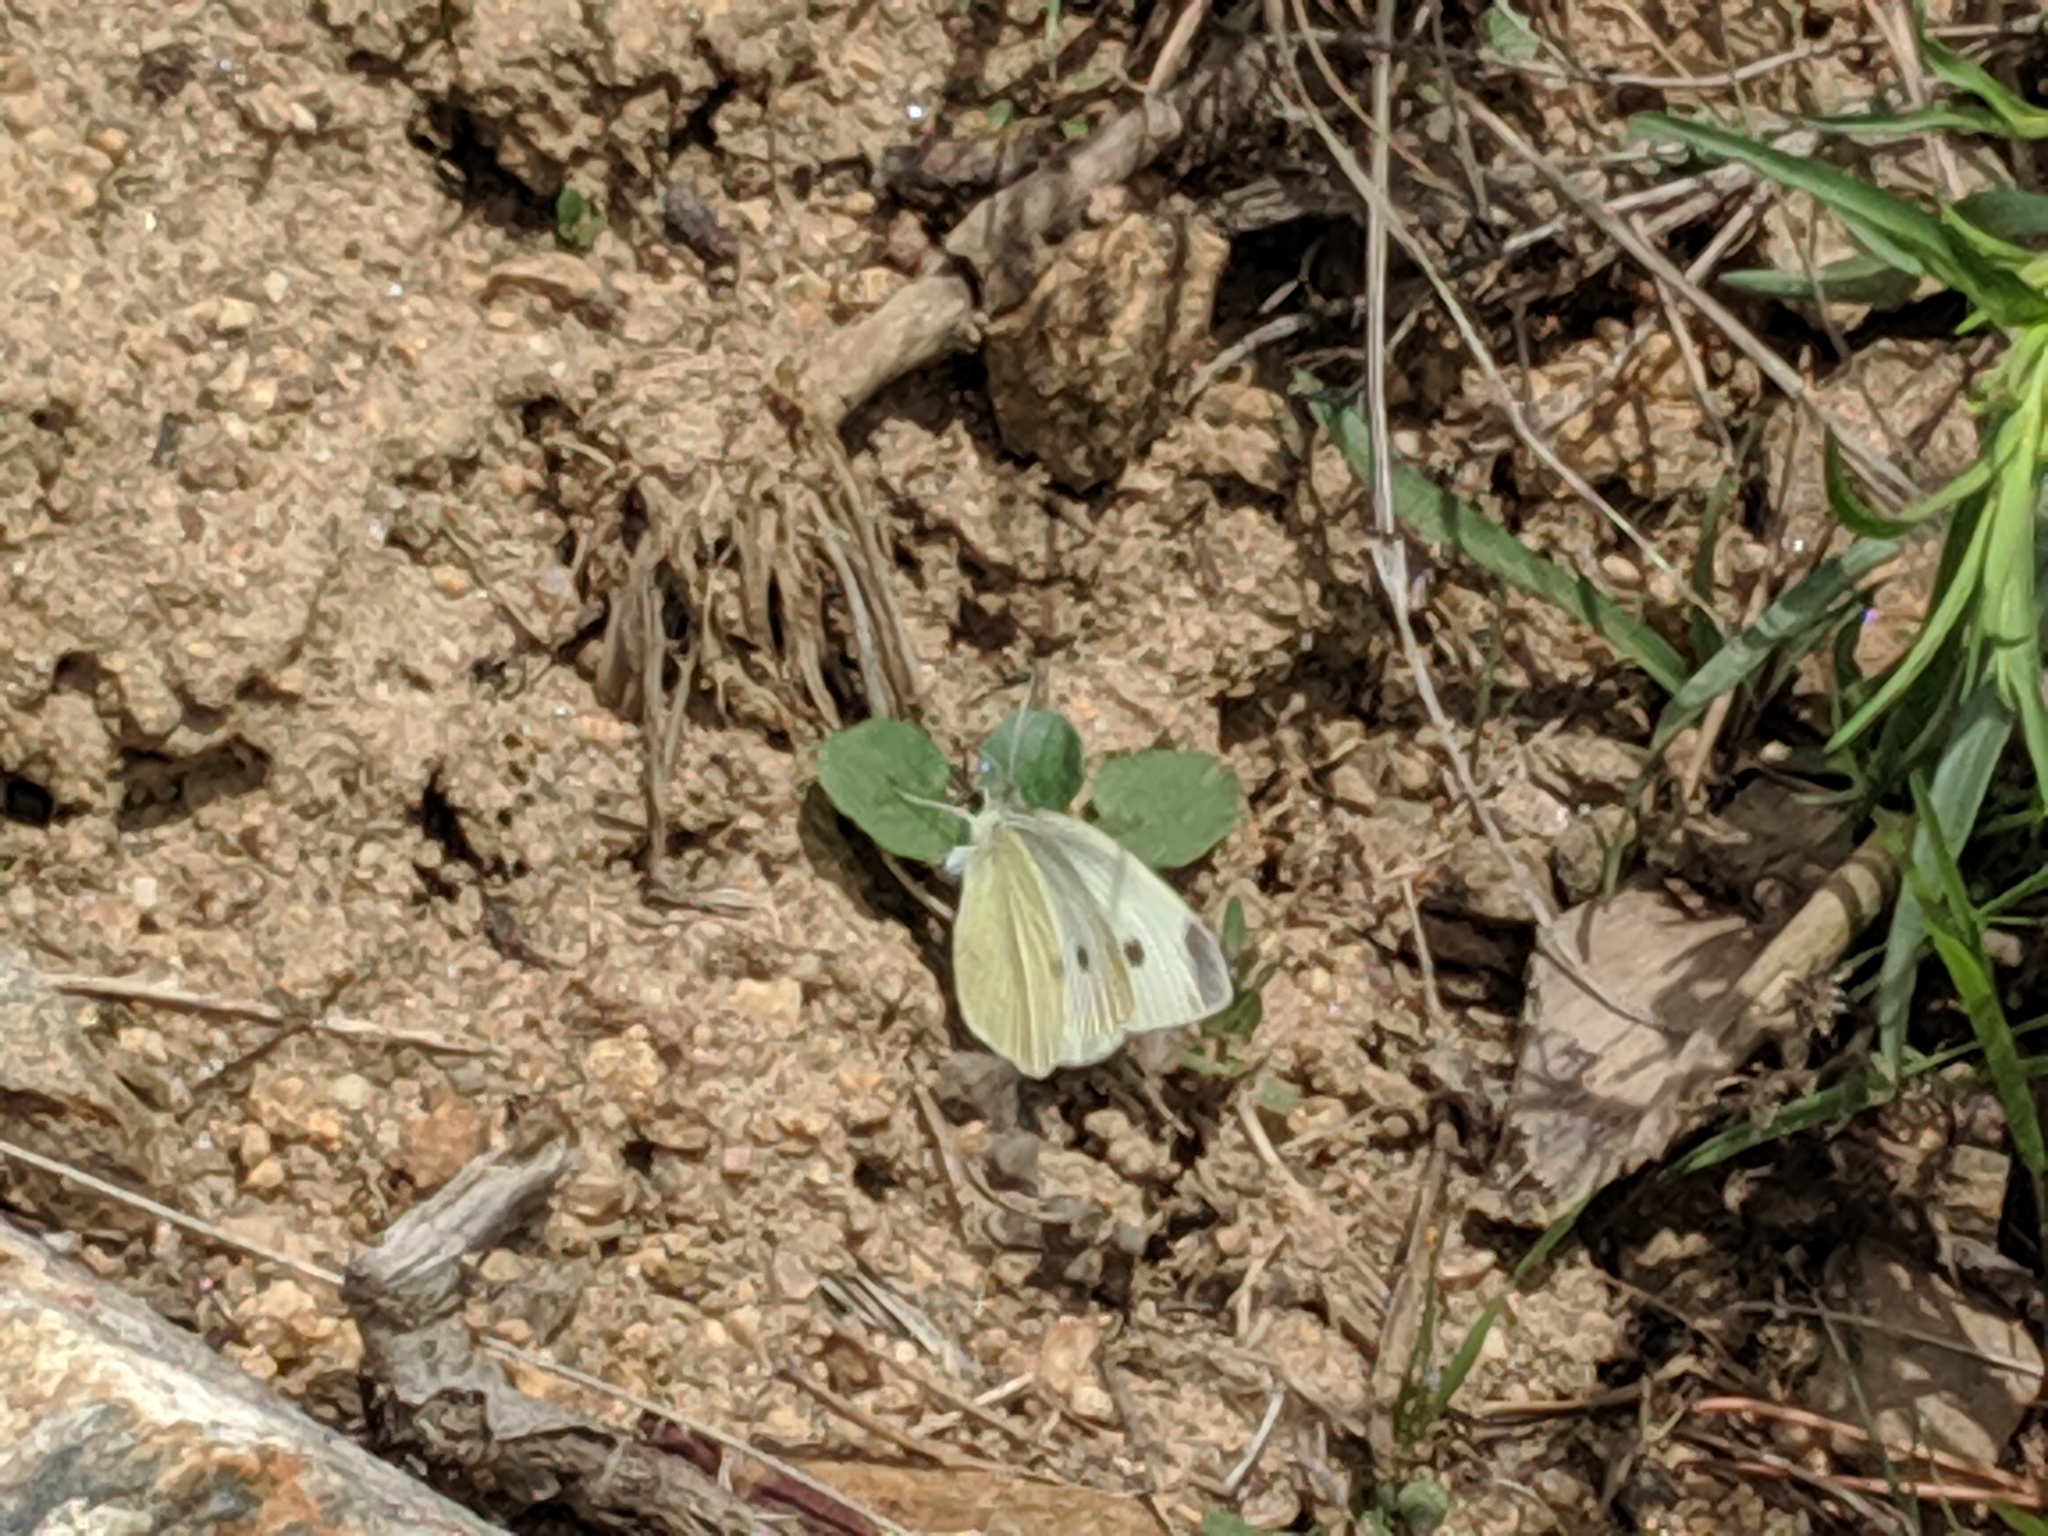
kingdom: Animalia
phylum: Arthropoda
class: Insecta
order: Lepidoptera
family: Pieridae
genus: Pieris
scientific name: Pieris rapae
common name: Small white
